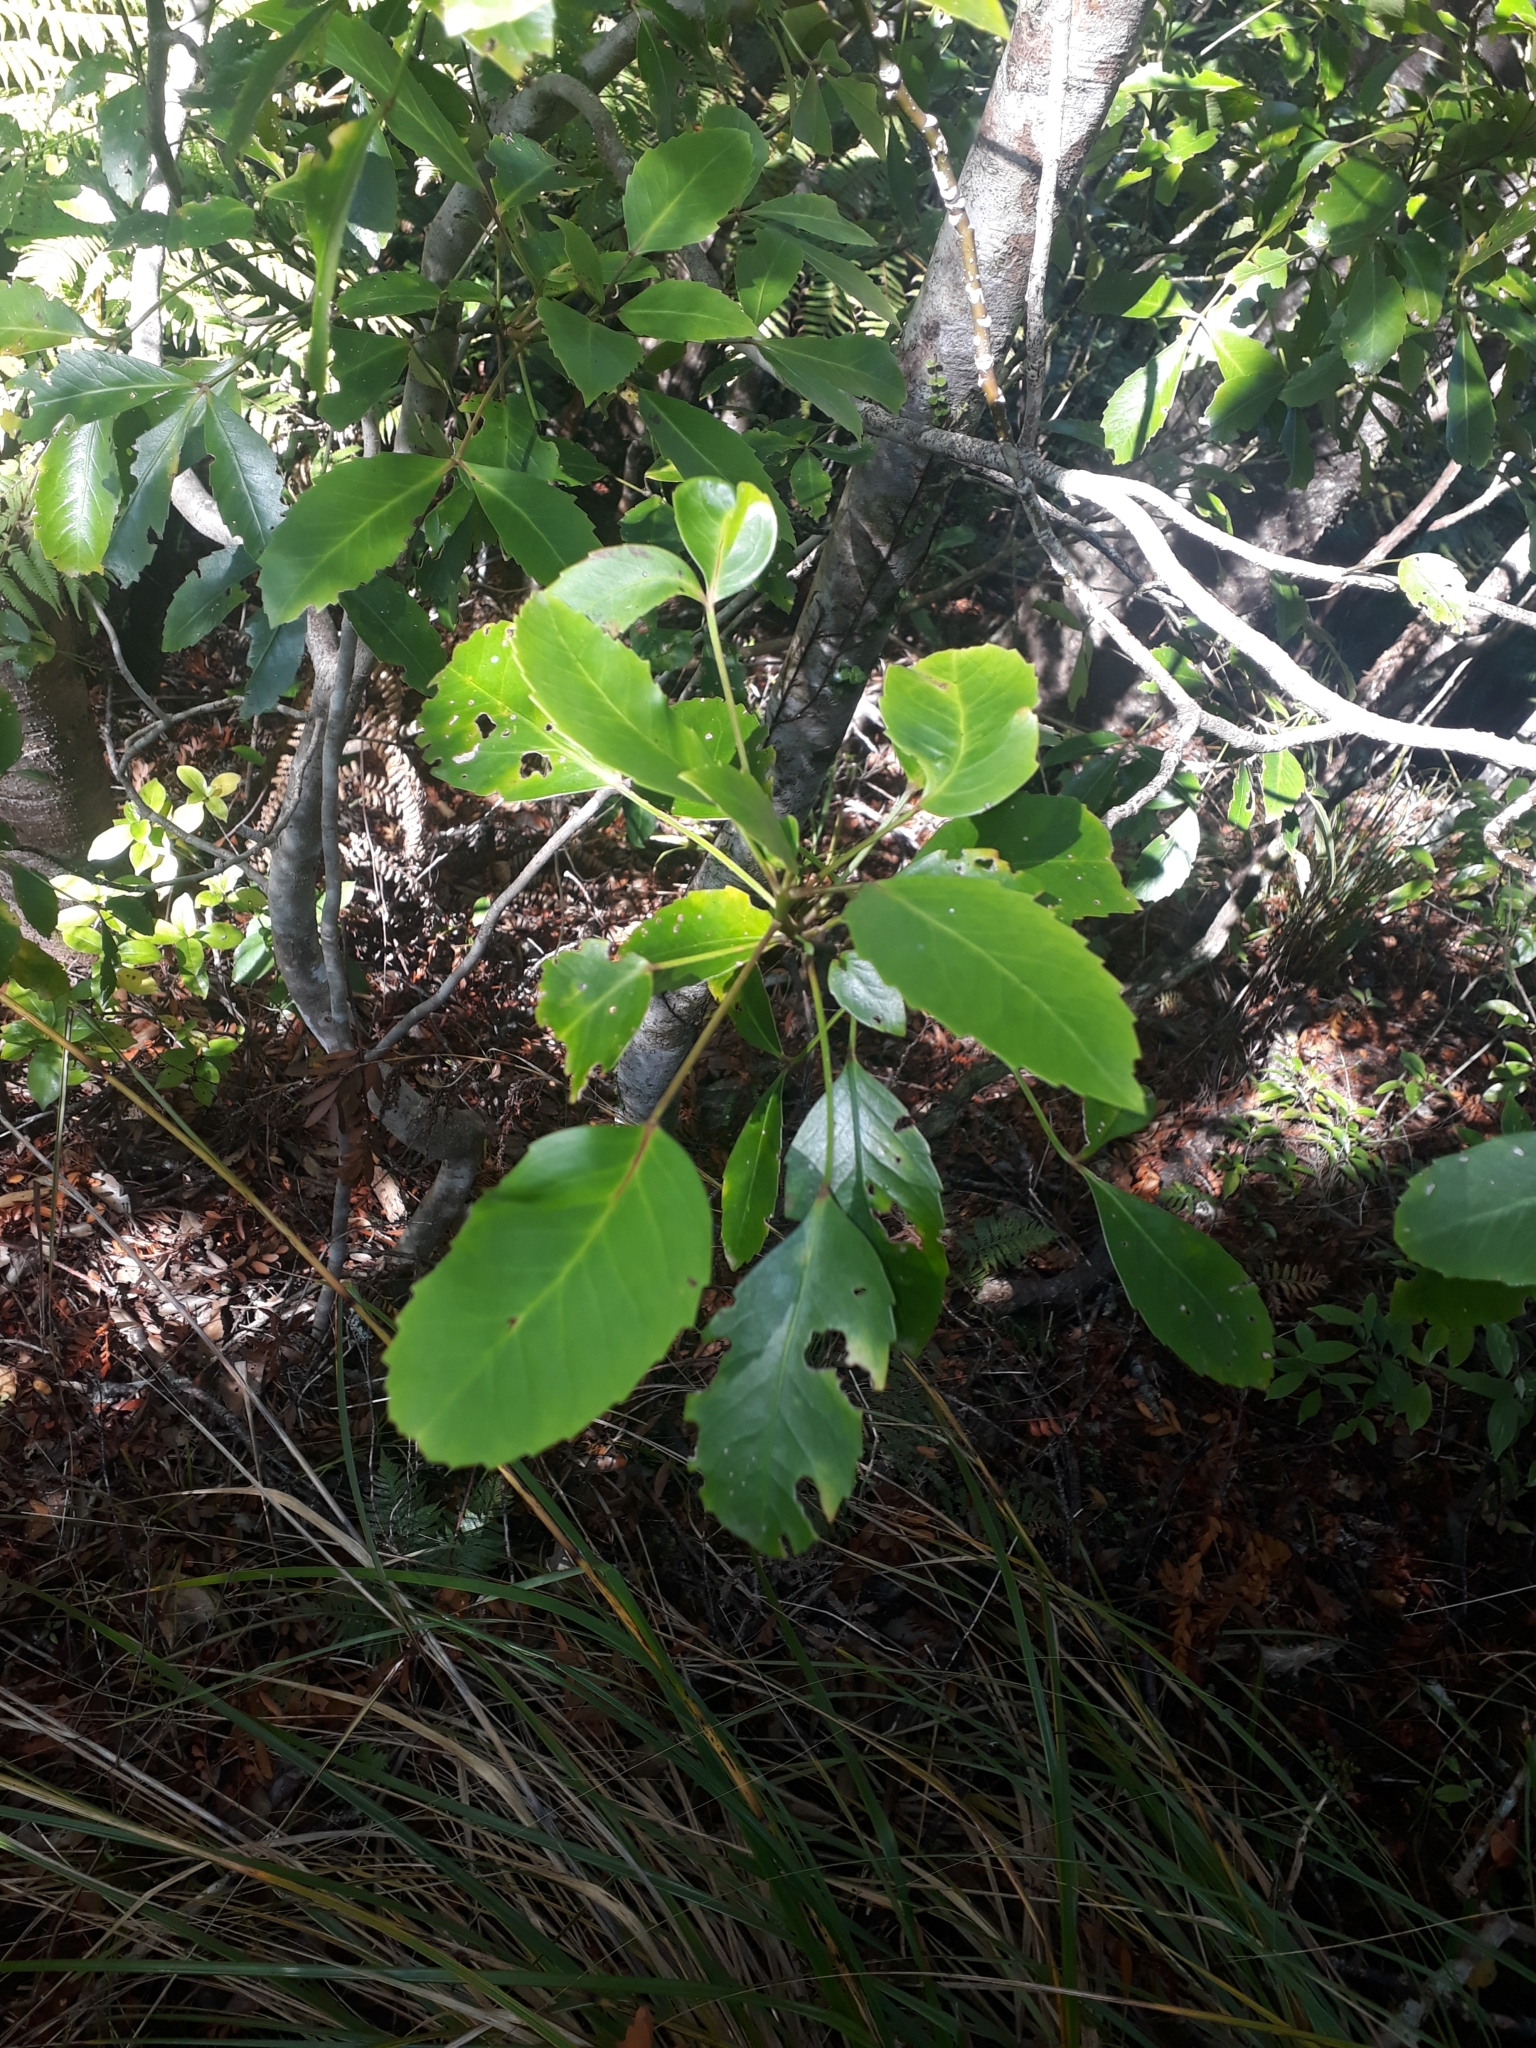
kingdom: Plantae
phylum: Tracheophyta
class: Magnoliopsida
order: Apiales
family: Araliaceae
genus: Pseudopanax
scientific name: Pseudopanax gilliesii
